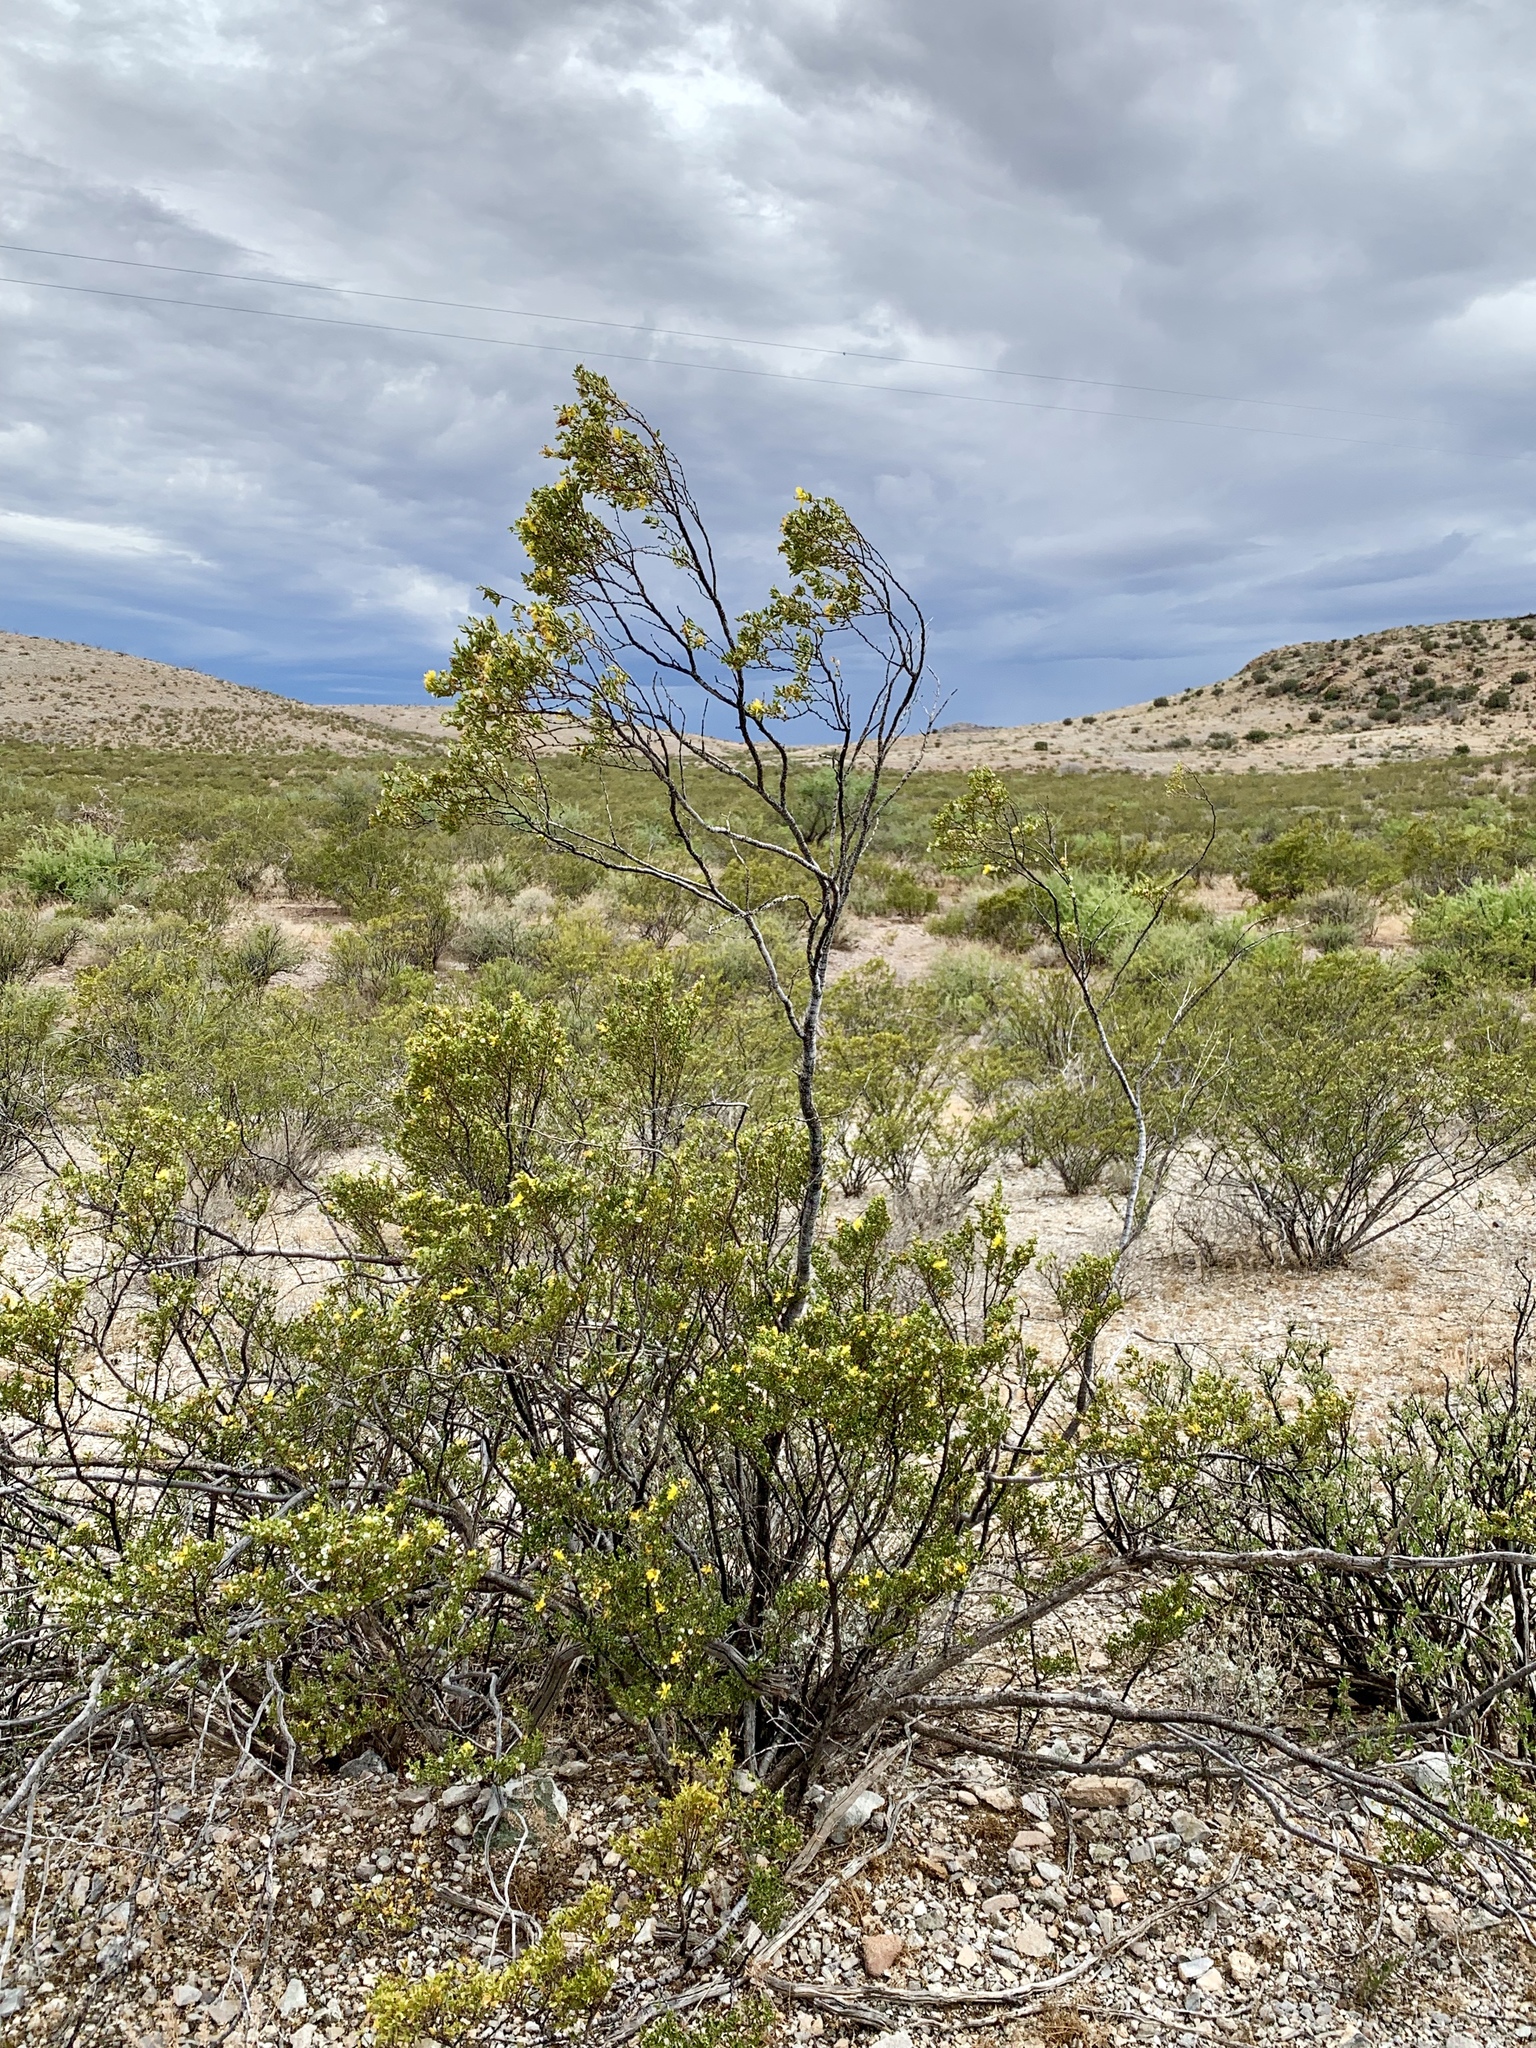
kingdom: Plantae
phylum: Tracheophyta
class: Magnoliopsida
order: Zygophyllales
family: Zygophyllaceae
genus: Larrea
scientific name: Larrea tridentata
